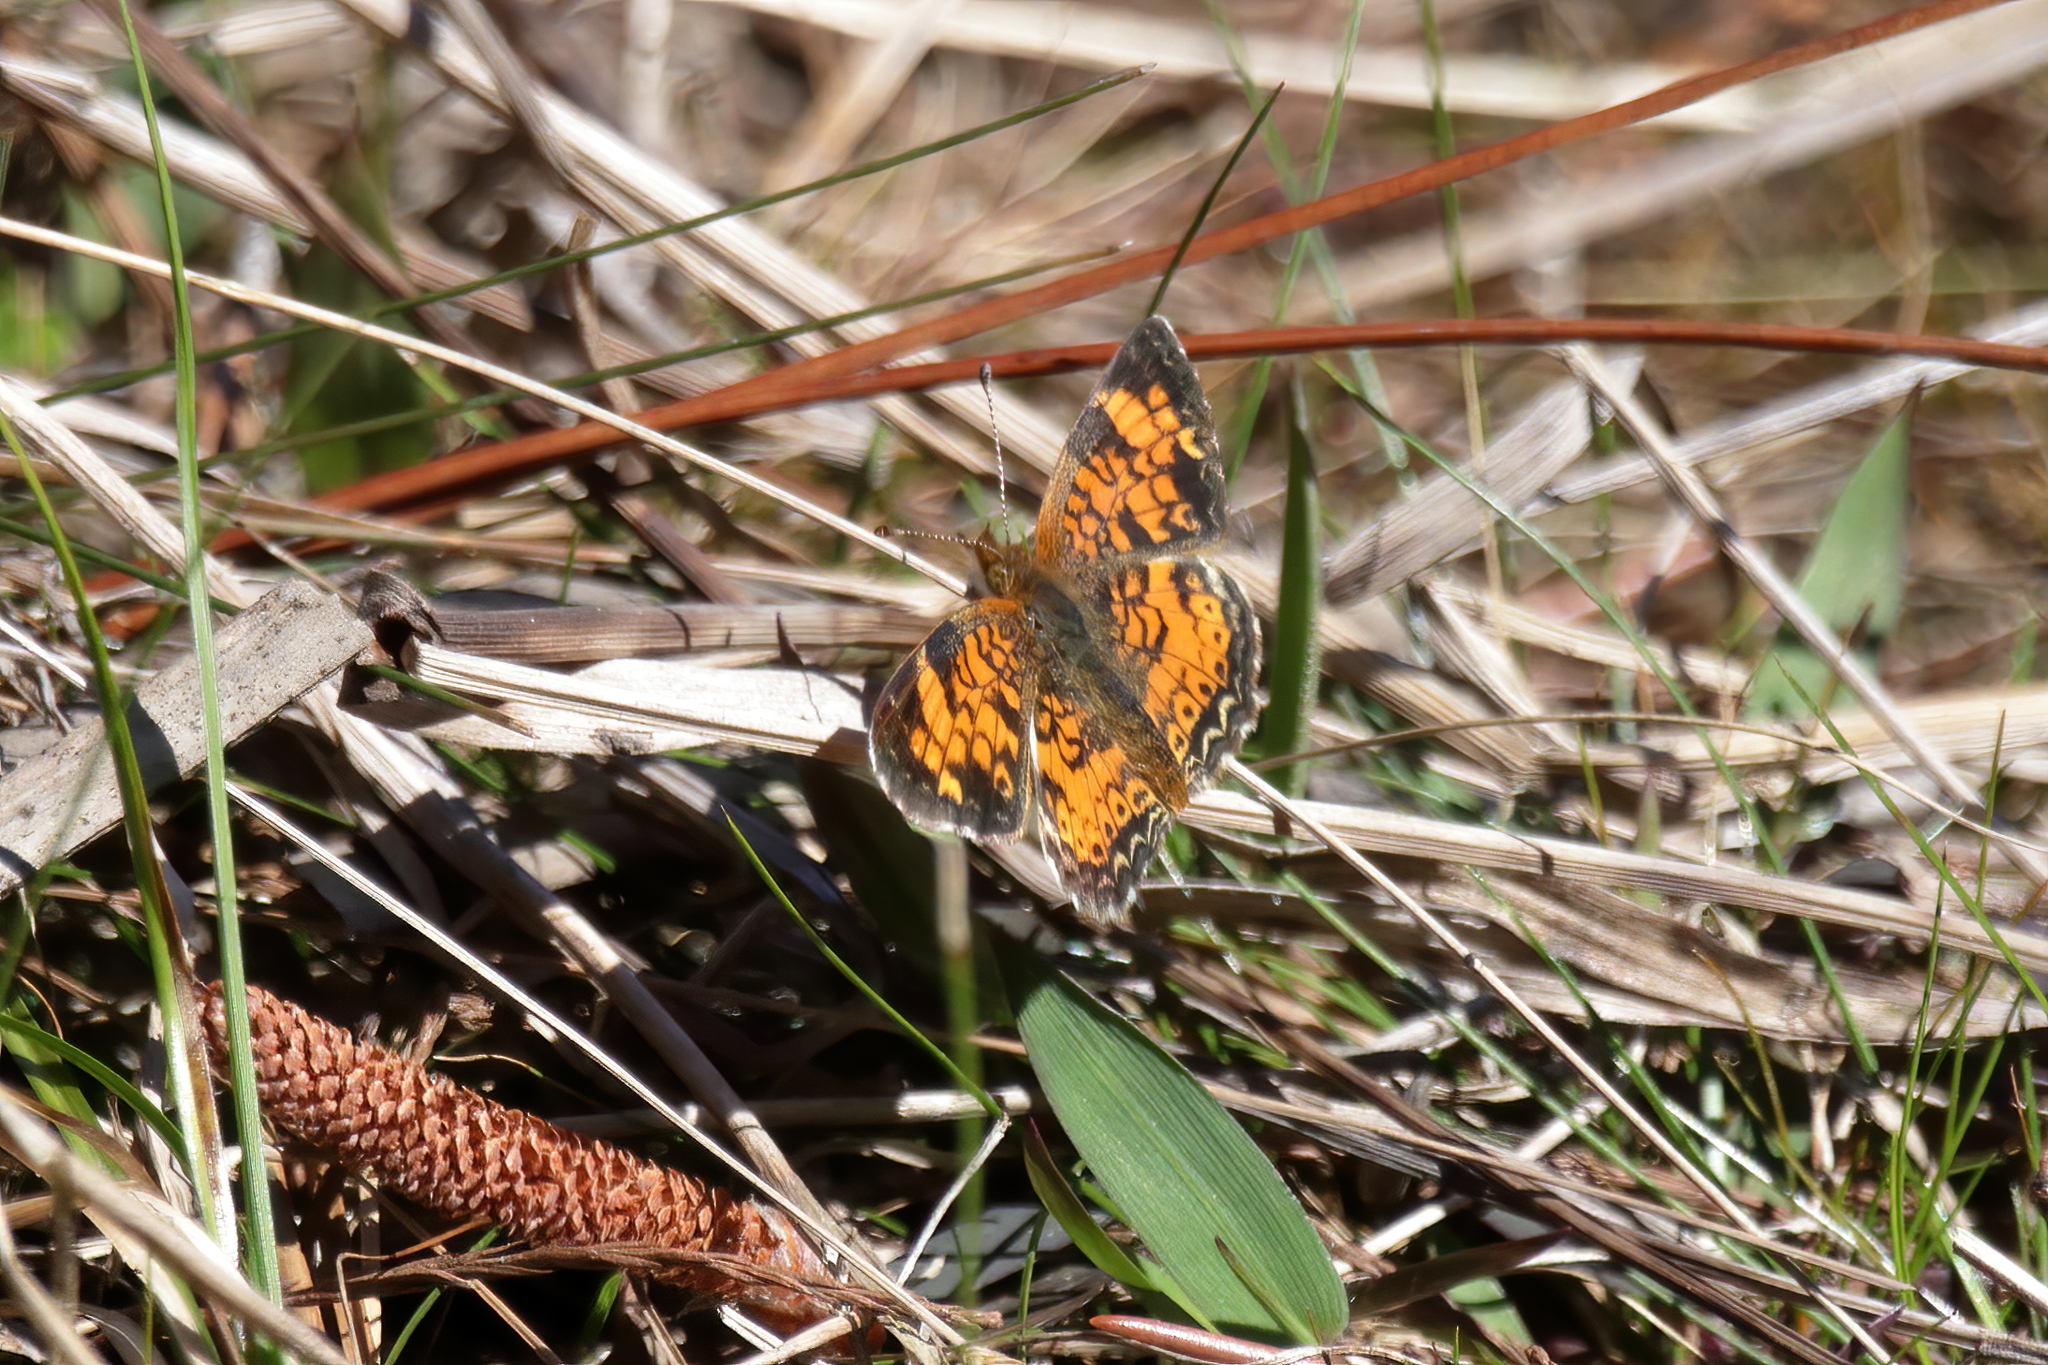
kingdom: Animalia
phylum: Arthropoda
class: Insecta
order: Lepidoptera
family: Nymphalidae
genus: Phyciodes
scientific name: Phyciodes tharos
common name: Pearl crescent
